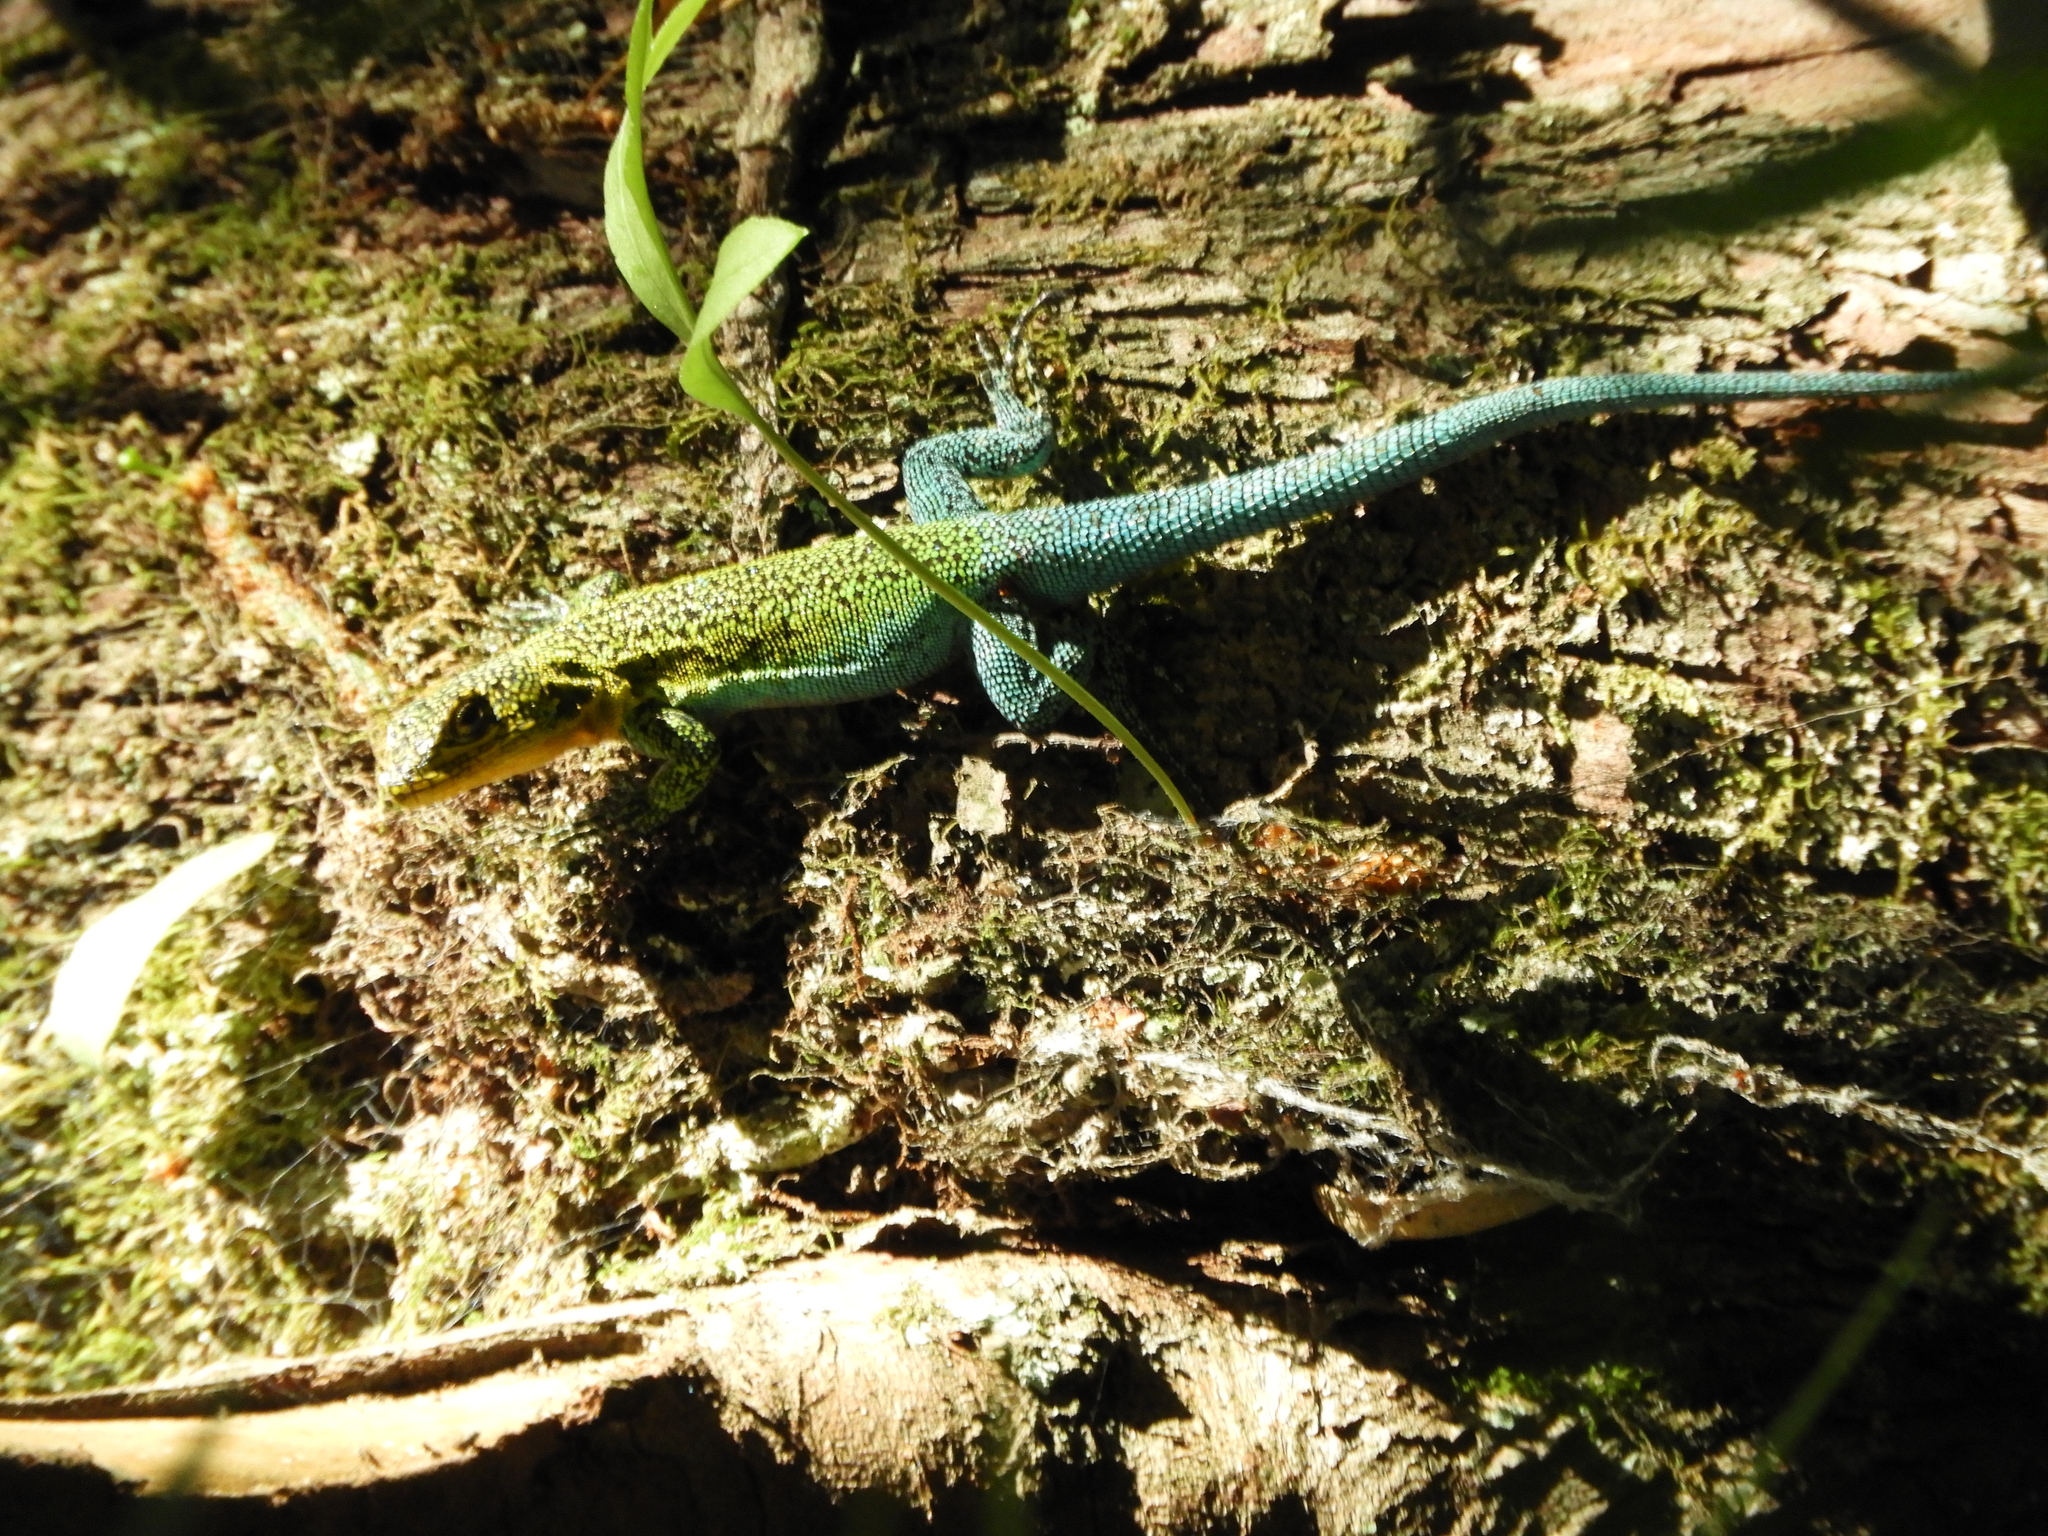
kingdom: Animalia
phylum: Chordata
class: Squamata
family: Liolaemidae
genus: Liolaemus
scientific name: Liolaemus tenuis
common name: Thin tree iguana
